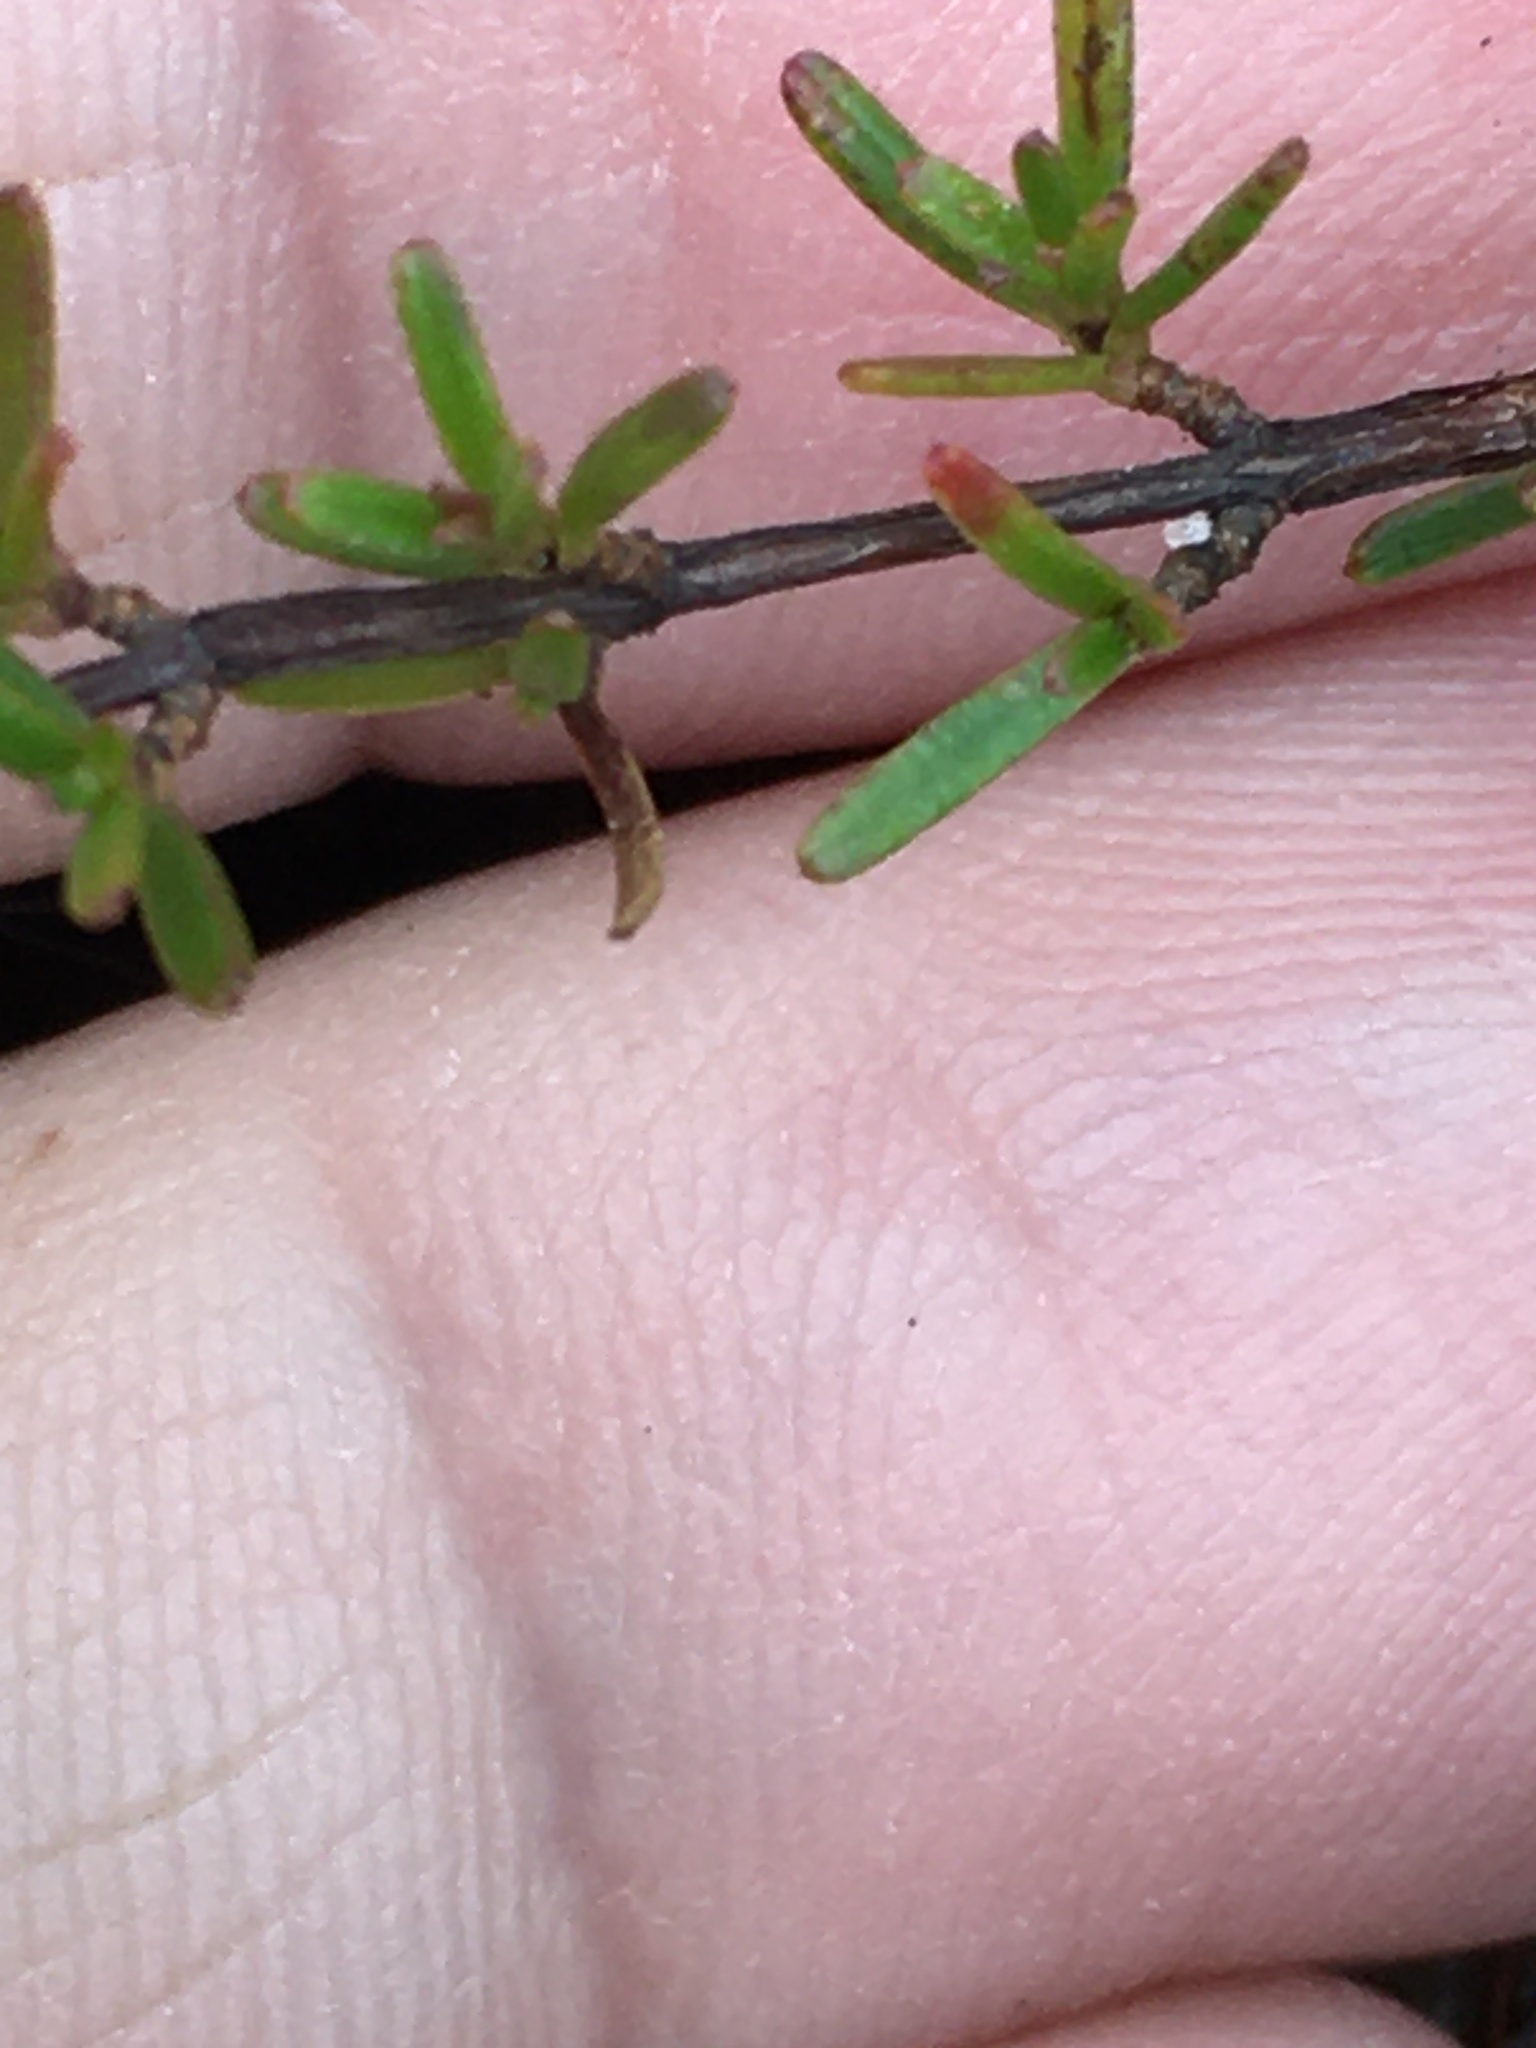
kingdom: Plantae
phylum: Tracheophyta
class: Magnoliopsida
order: Malpighiales
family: Hypericaceae
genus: Hypericum
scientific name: Hypericum lloydii
